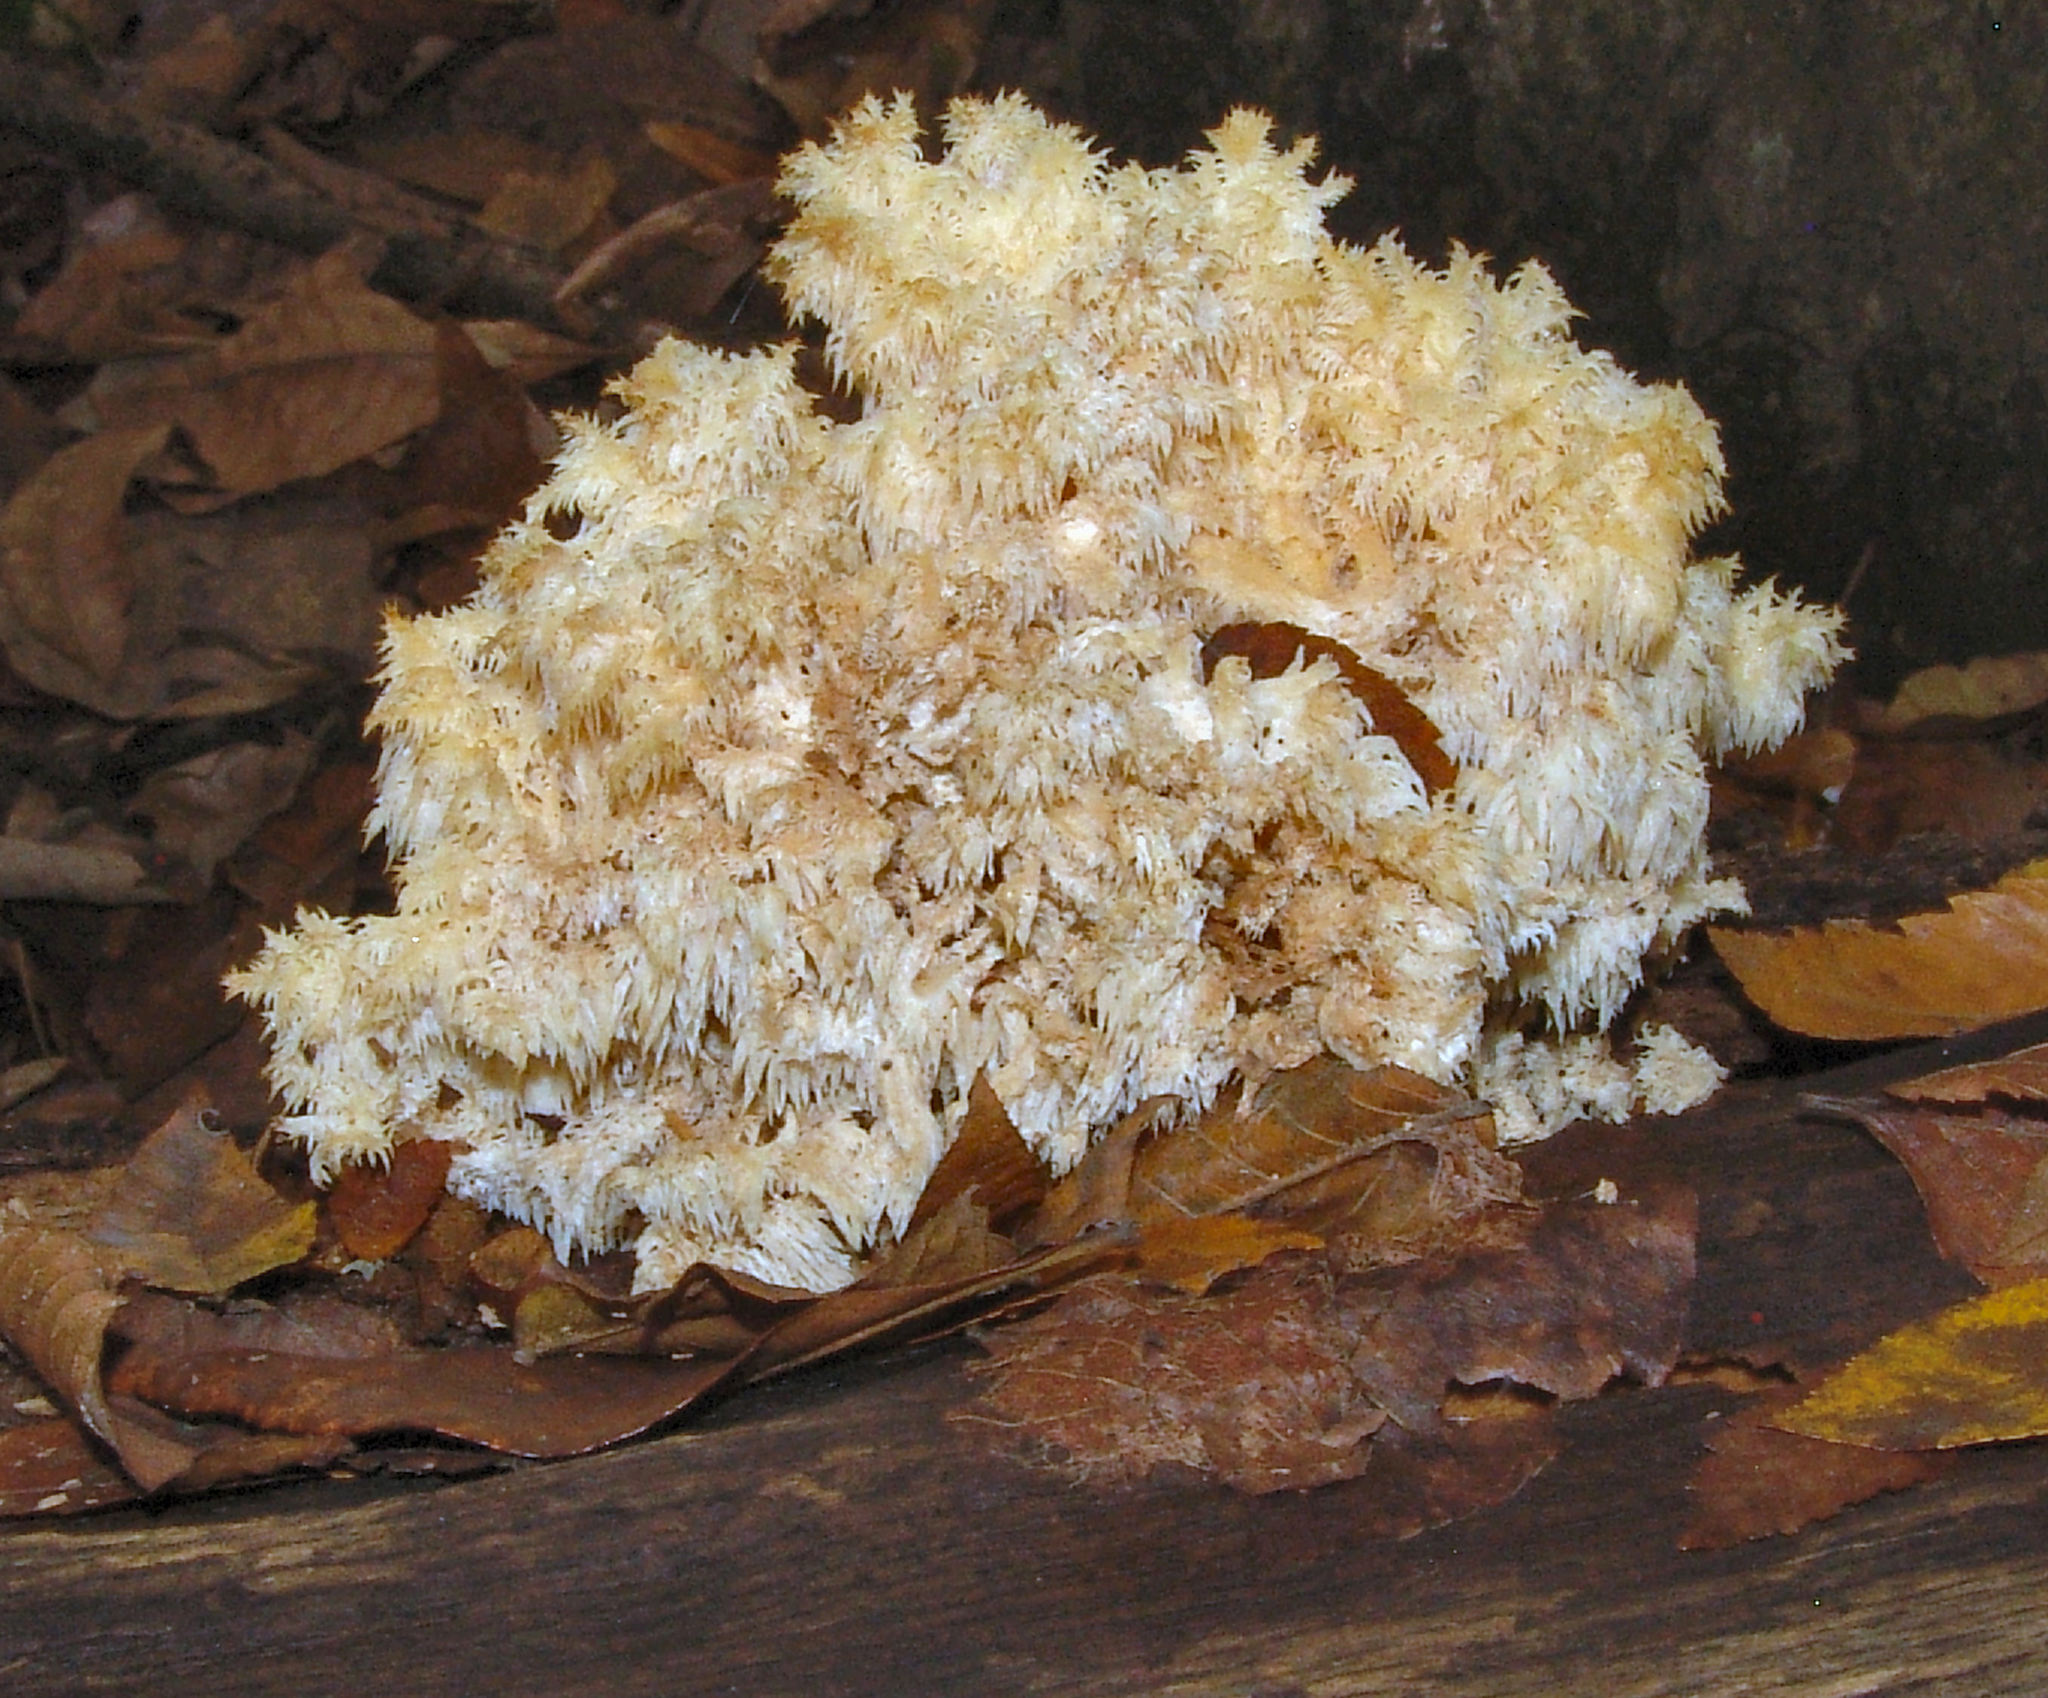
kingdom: Fungi
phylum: Basidiomycota
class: Agaricomycetes
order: Russulales
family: Hericiaceae
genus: Hericium
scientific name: Hericium coralloides
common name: Coral tooth
